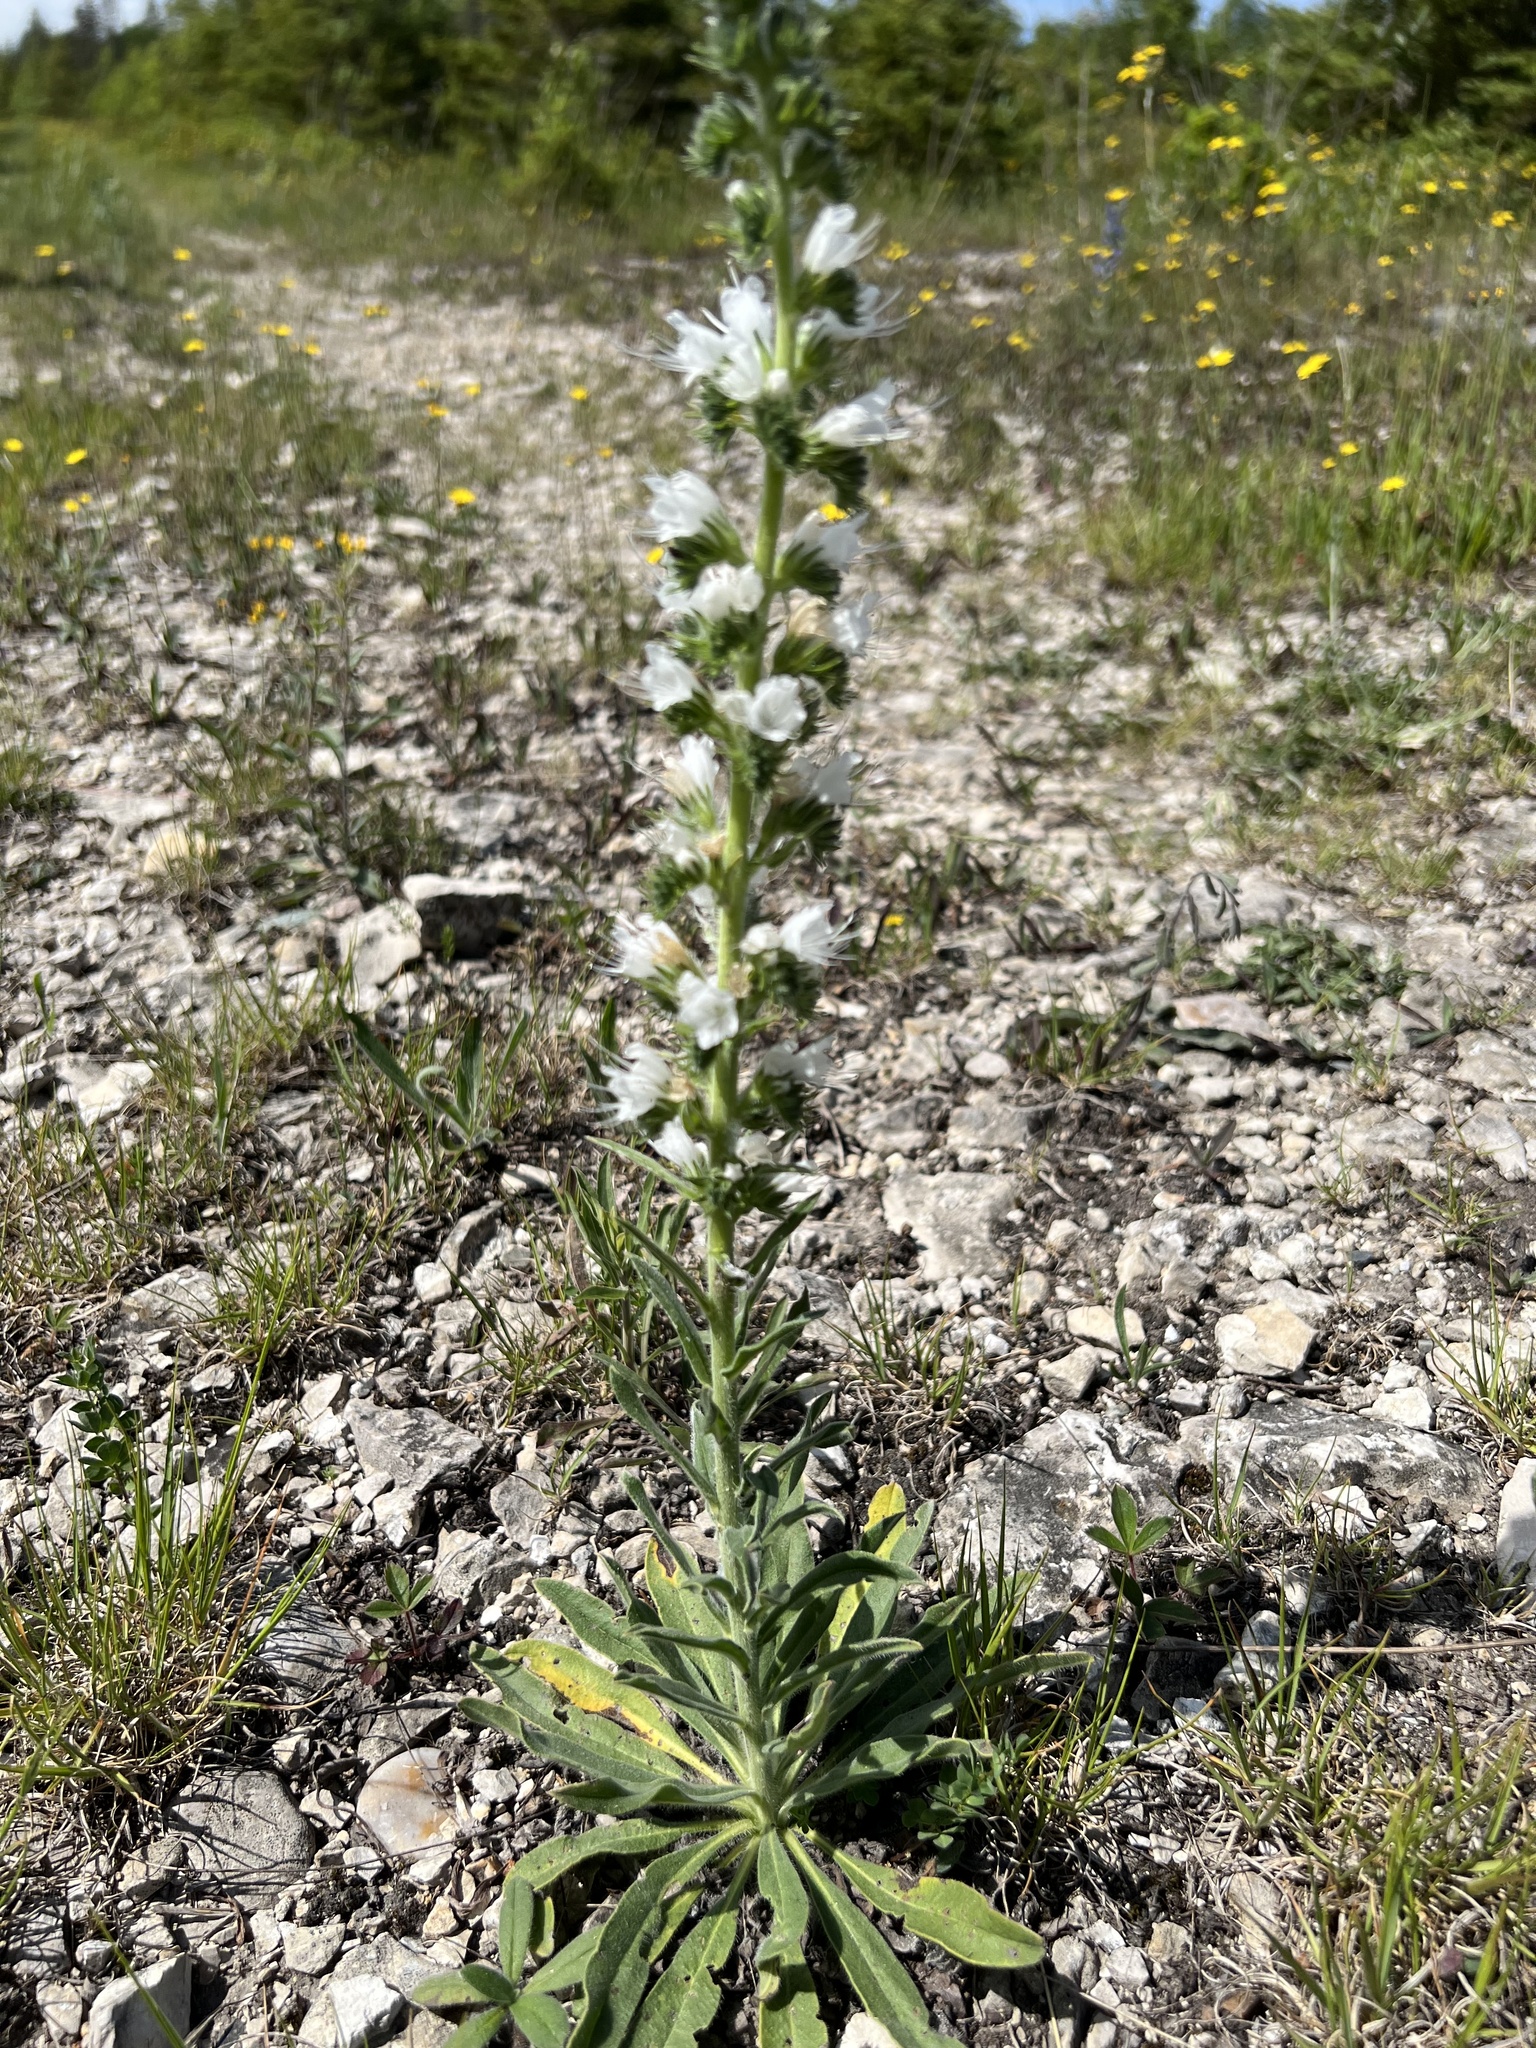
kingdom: Plantae
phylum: Tracheophyta
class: Magnoliopsida
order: Boraginales
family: Boraginaceae
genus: Echium
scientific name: Echium vulgare
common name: Common viper's bugloss
